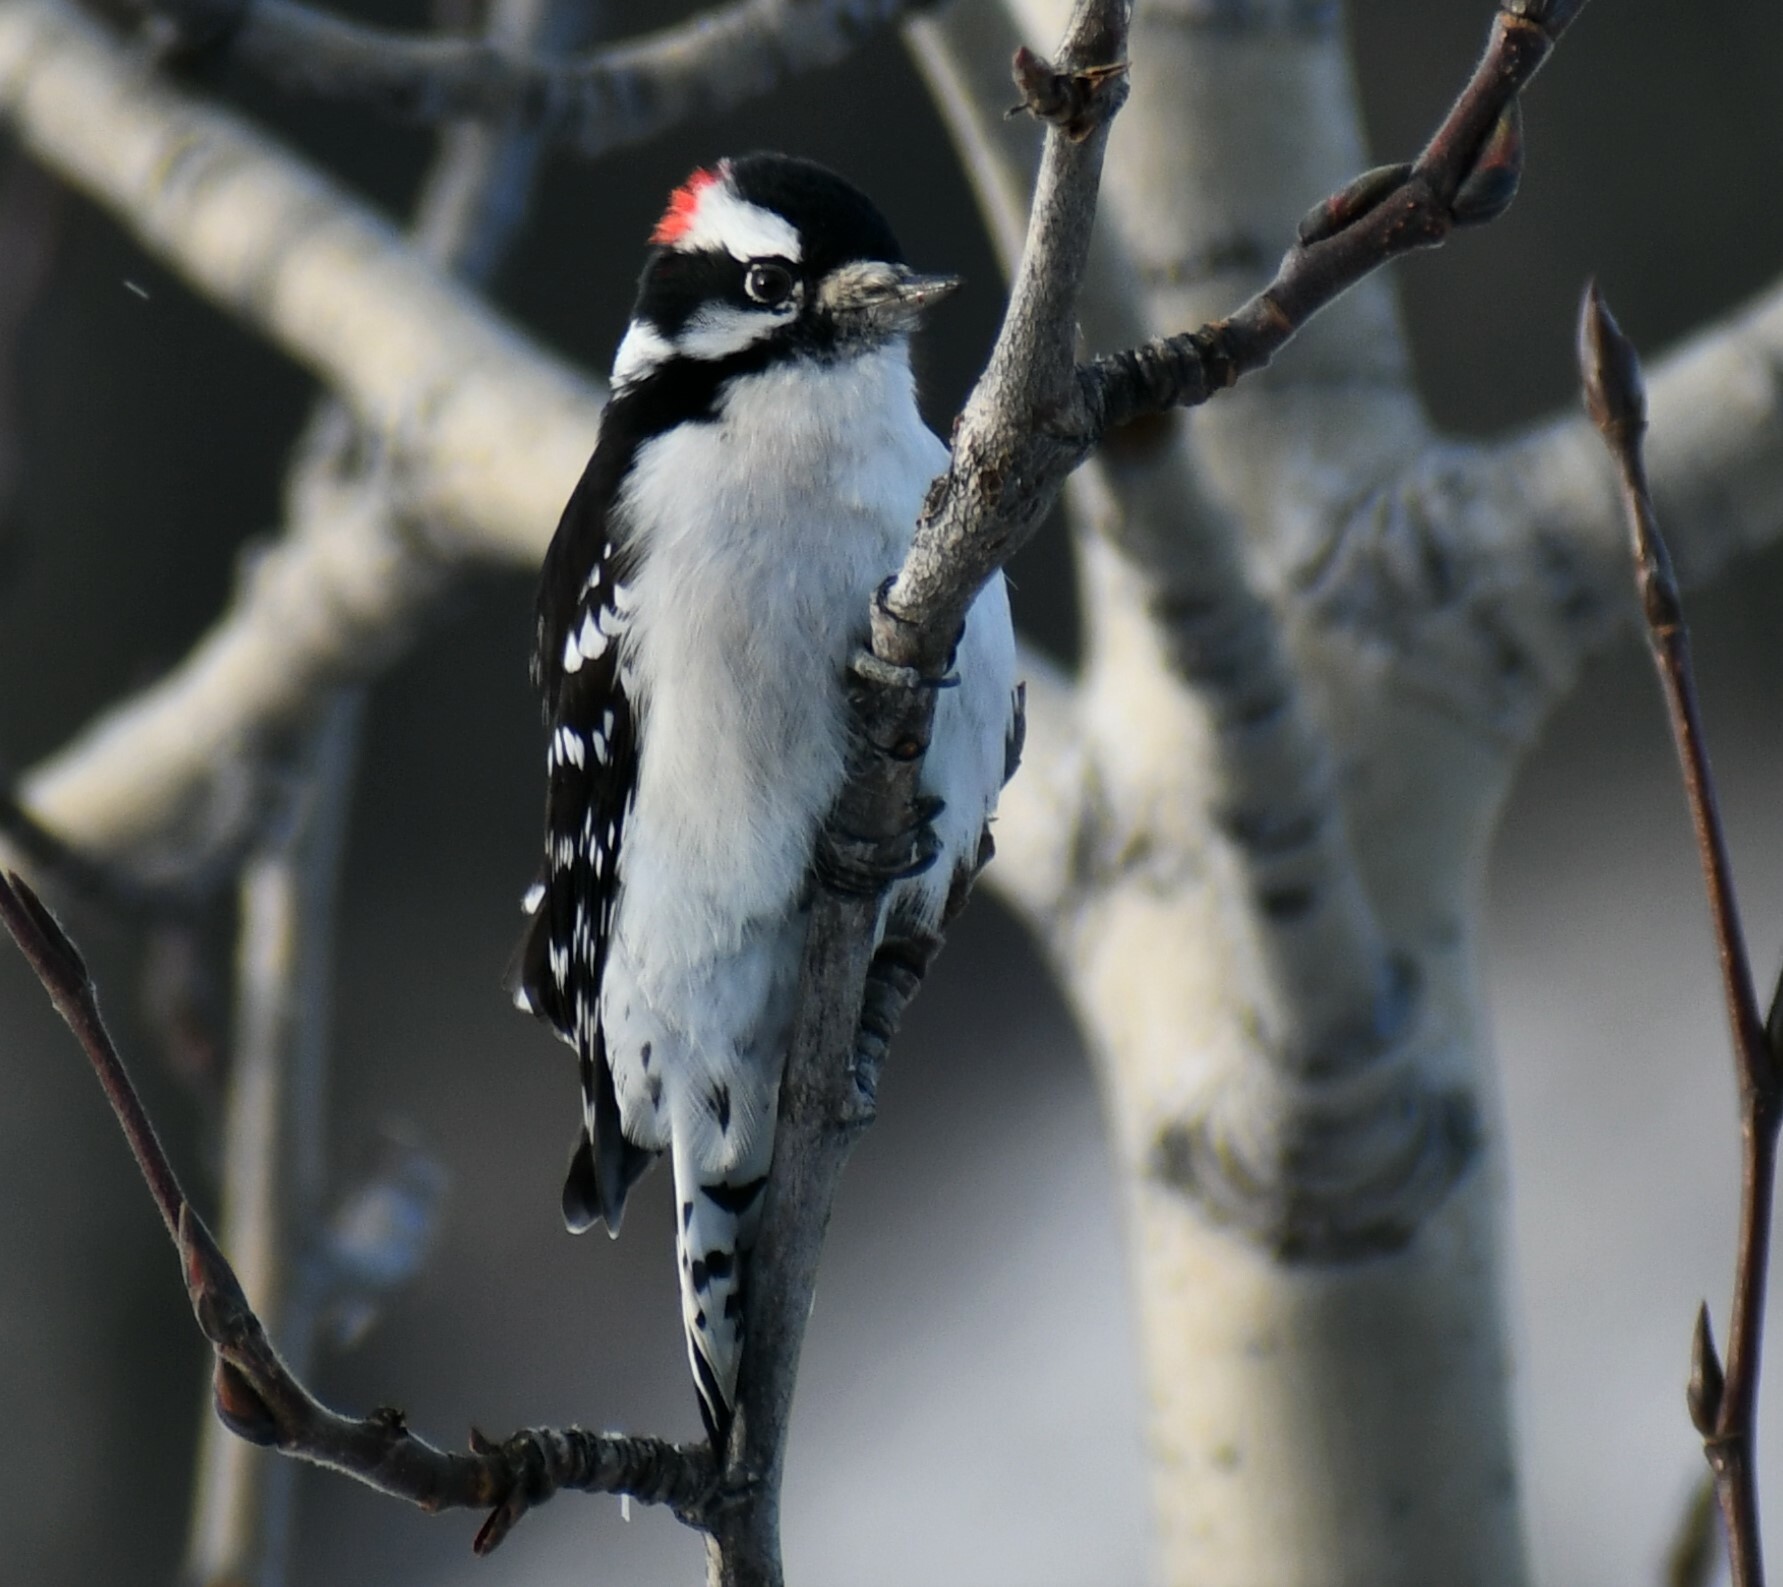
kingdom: Animalia
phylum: Chordata
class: Aves
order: Piciformes
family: Picidae
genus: Dryobates
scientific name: Dryobates pubescens
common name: Downy woodpecker
